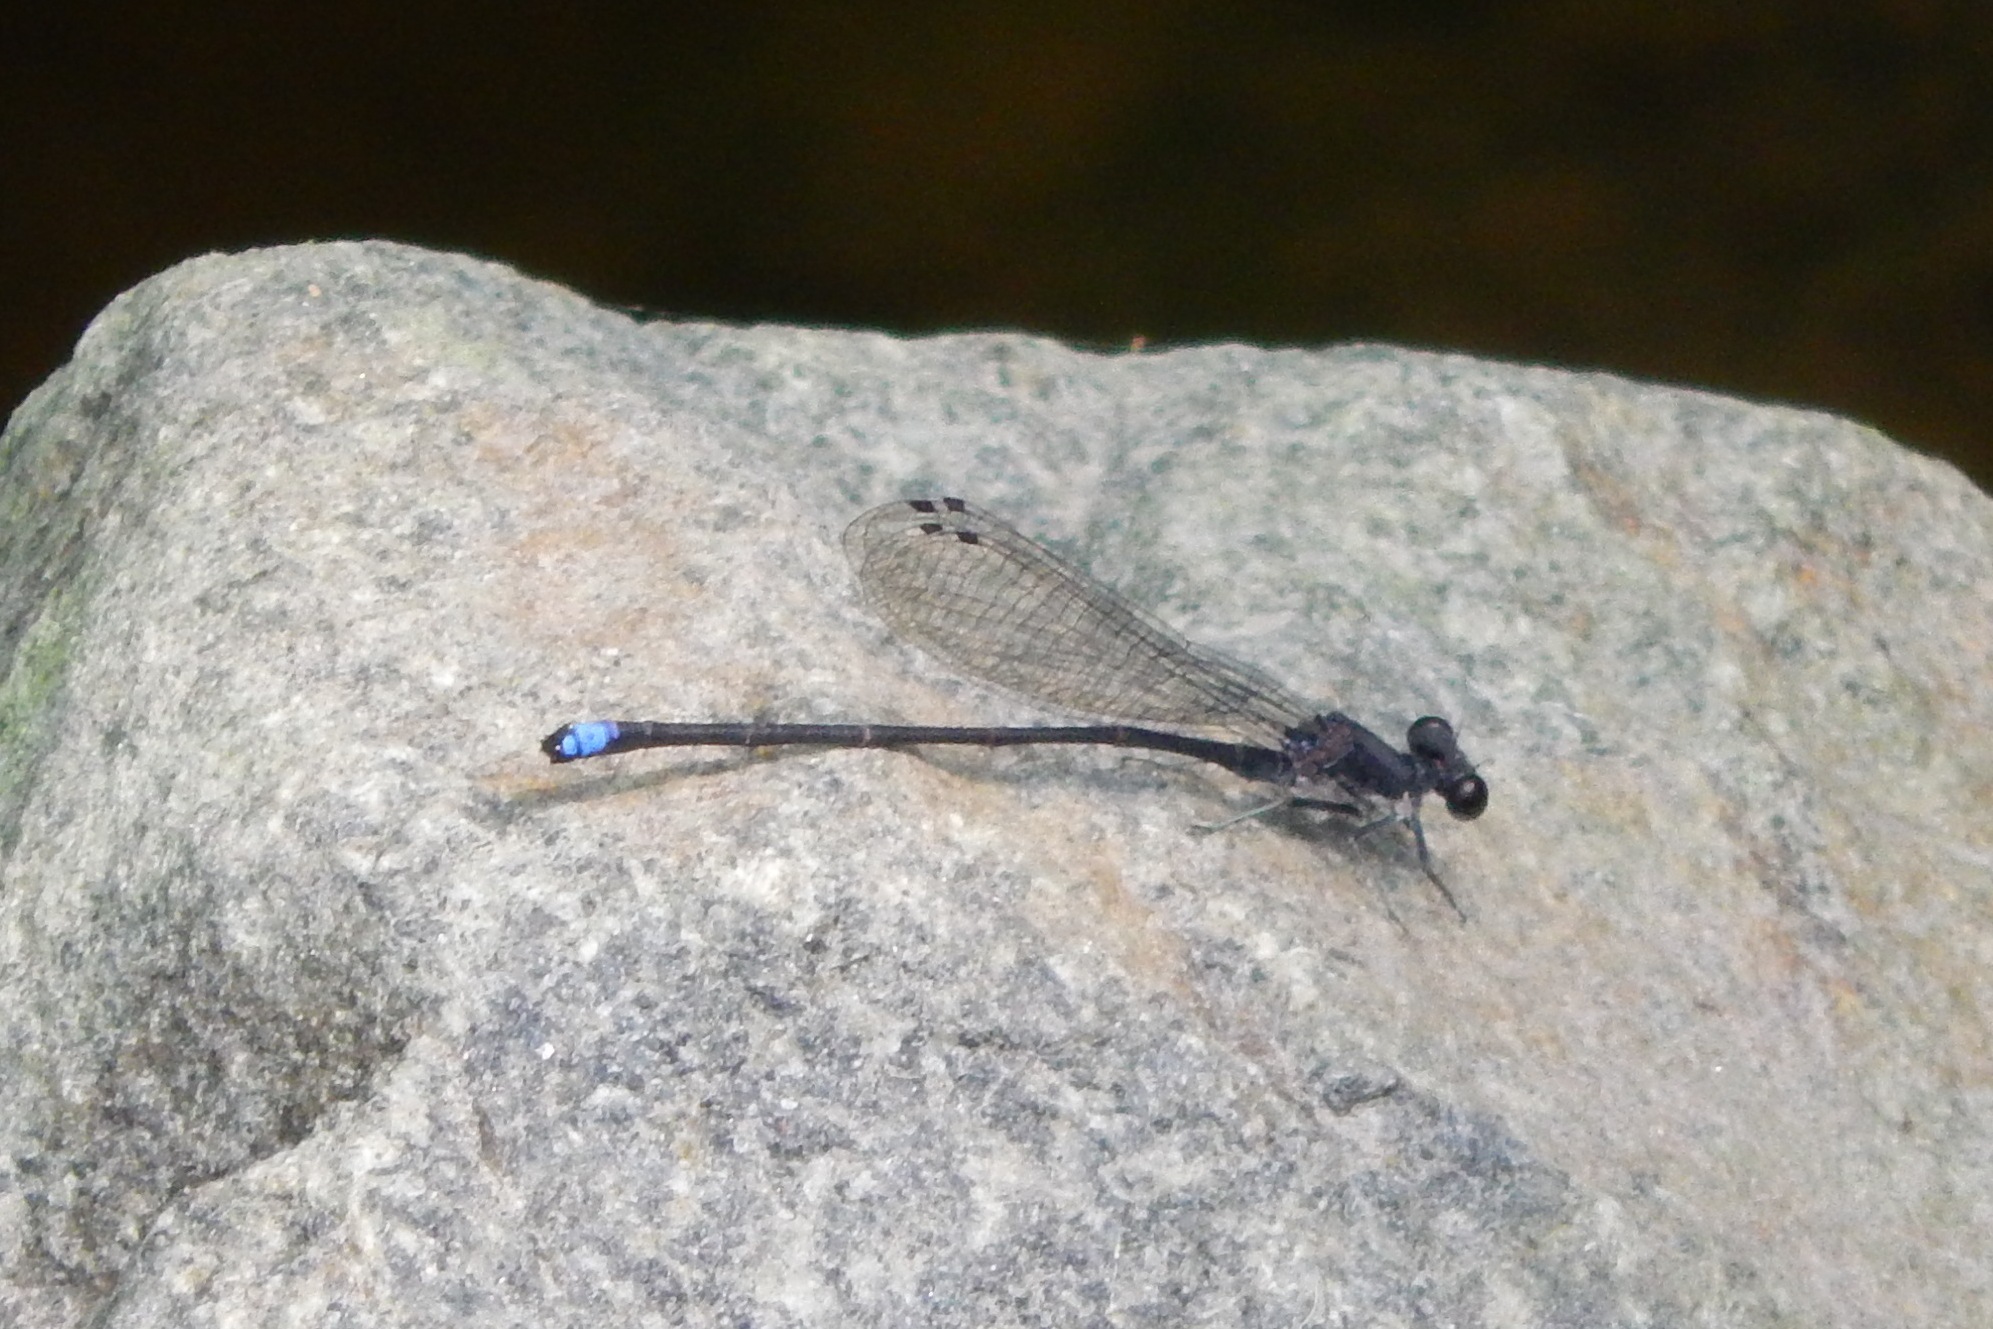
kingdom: Animalia
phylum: Arthropoda
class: Insecta
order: Odonata
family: Coenagrionidae
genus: Argia
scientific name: Argia tibialis
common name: Blue-tipped dancer
